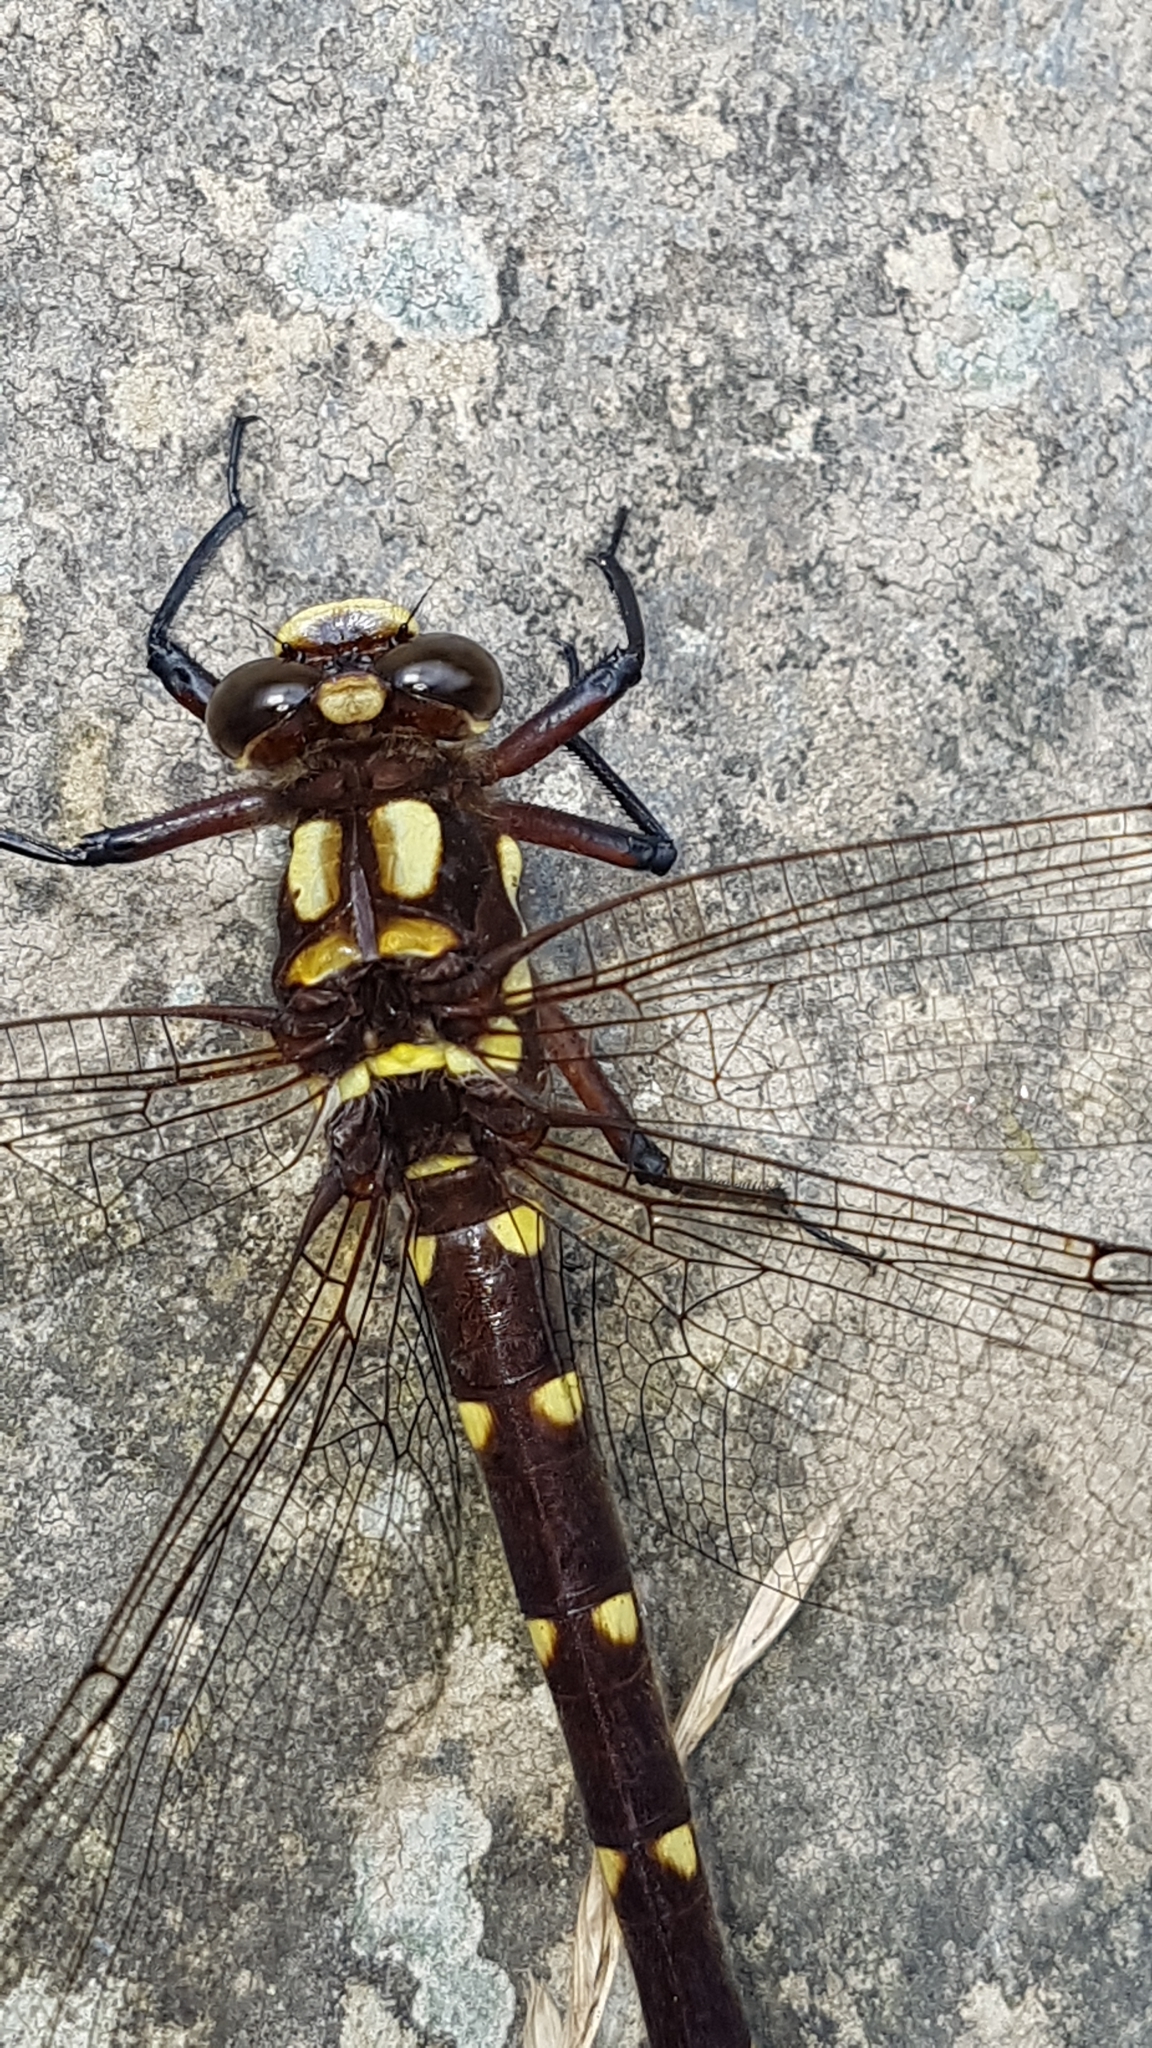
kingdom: Animalia
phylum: Arthropoda
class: Insecta
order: Odonata
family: Petaluridae
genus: Uropetala
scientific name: Uropetala carovei
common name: Bush giant dragonfly
